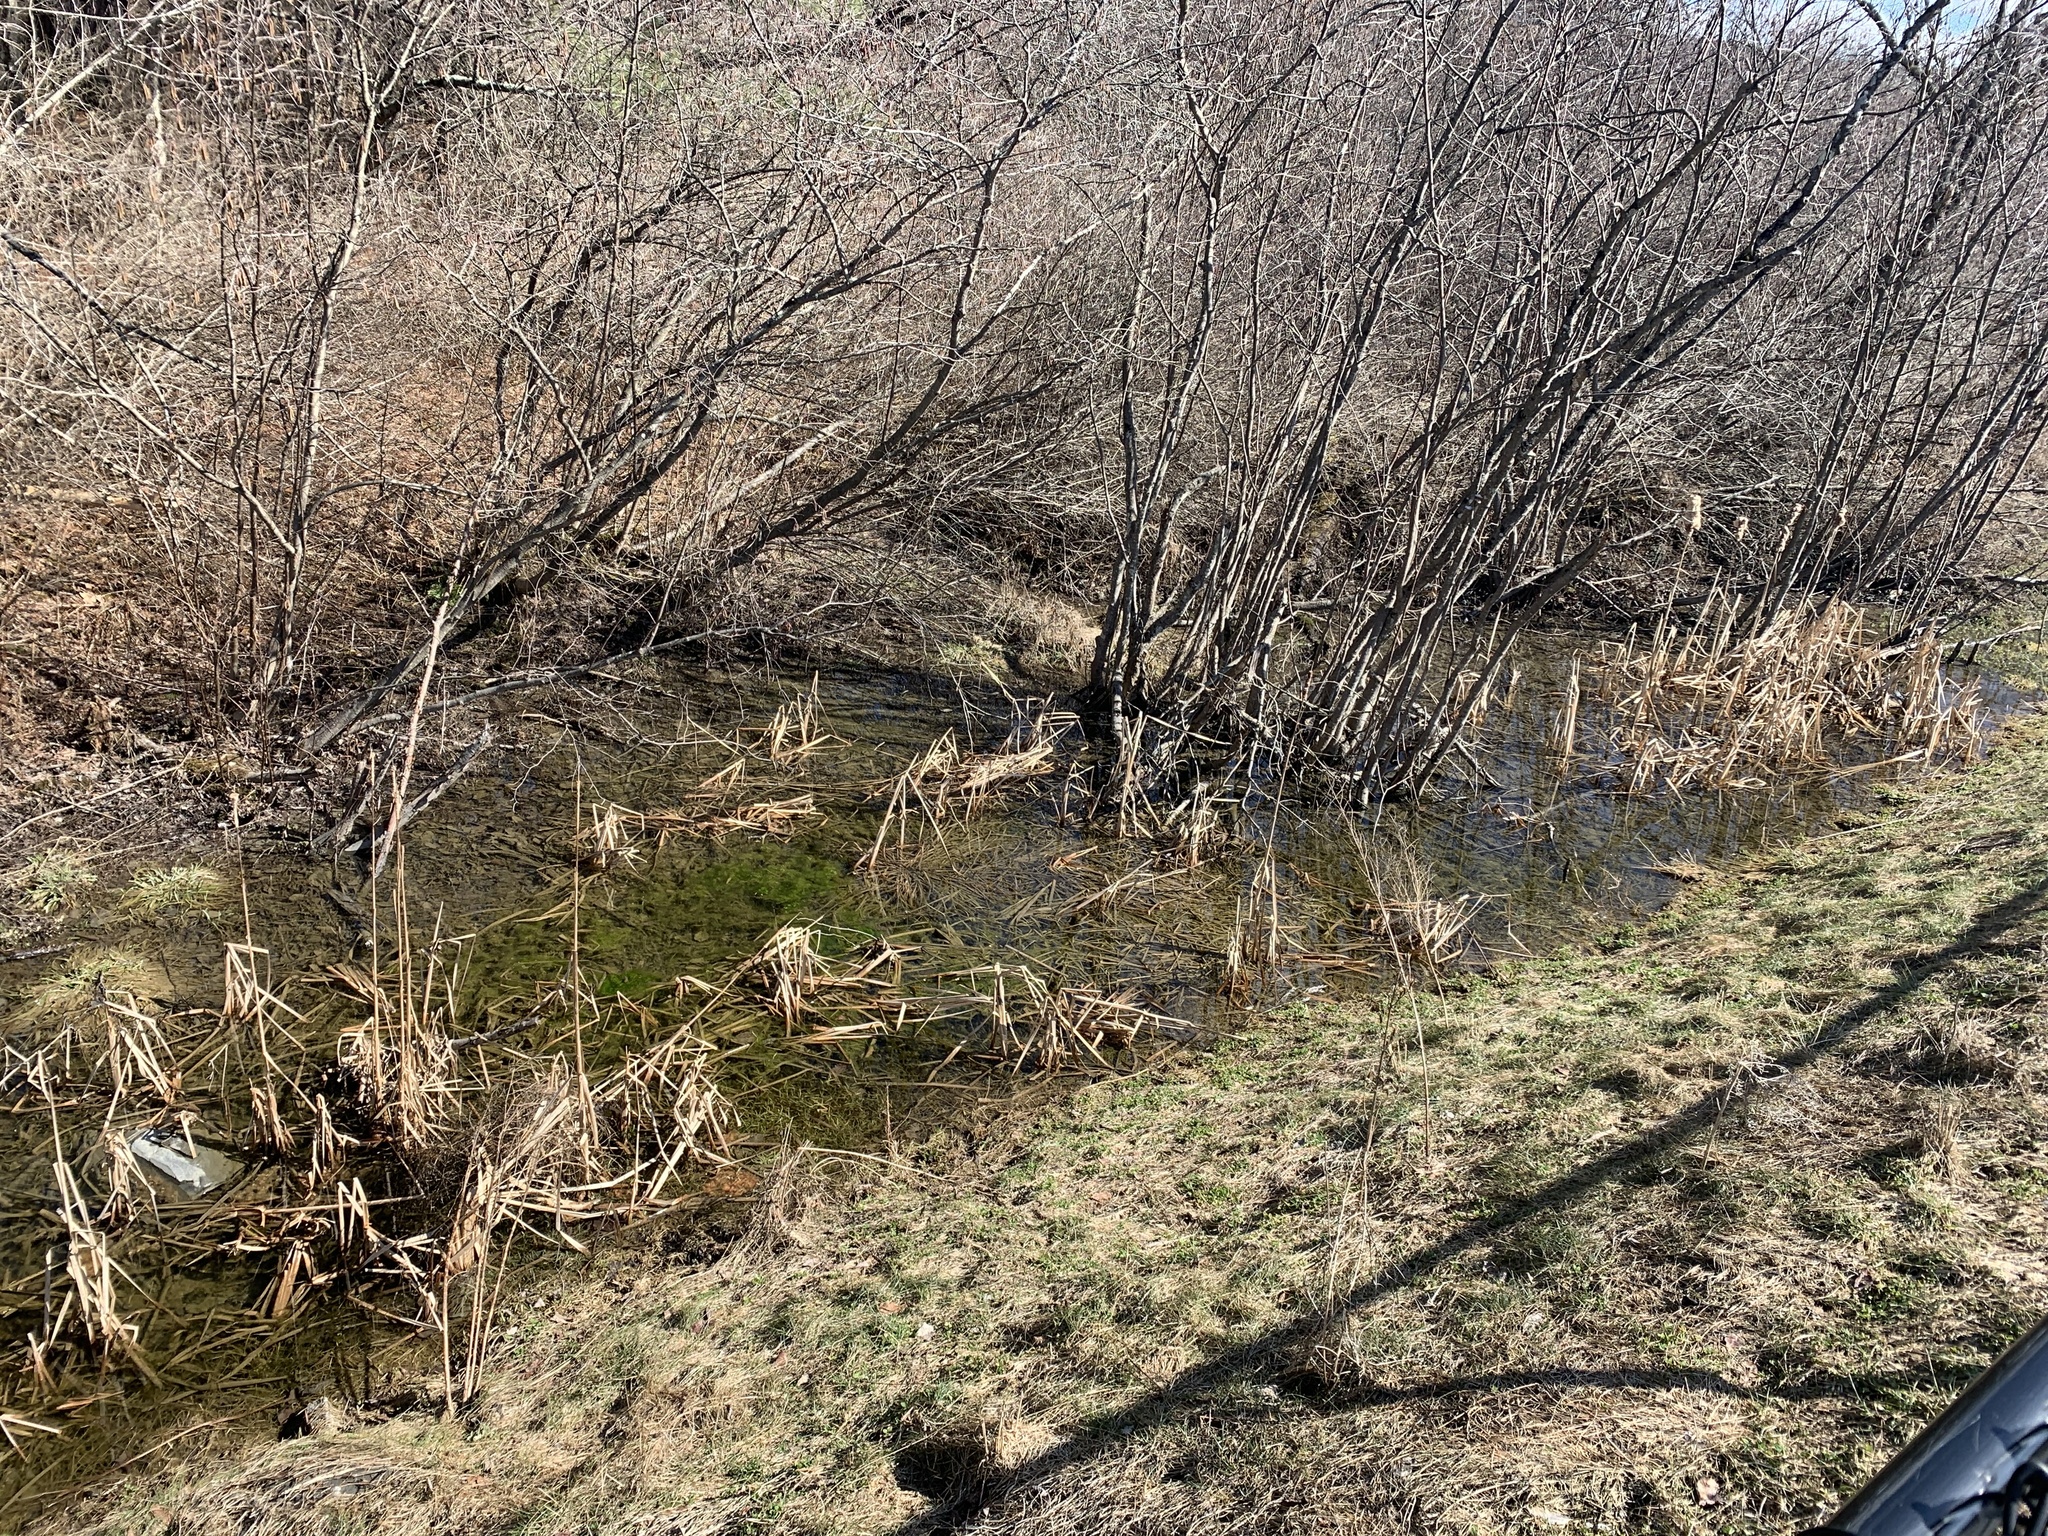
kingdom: Plantae
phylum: Tracheophyta
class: Liliopsida
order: Poales
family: Typhaceae
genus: Typha
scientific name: Typha
